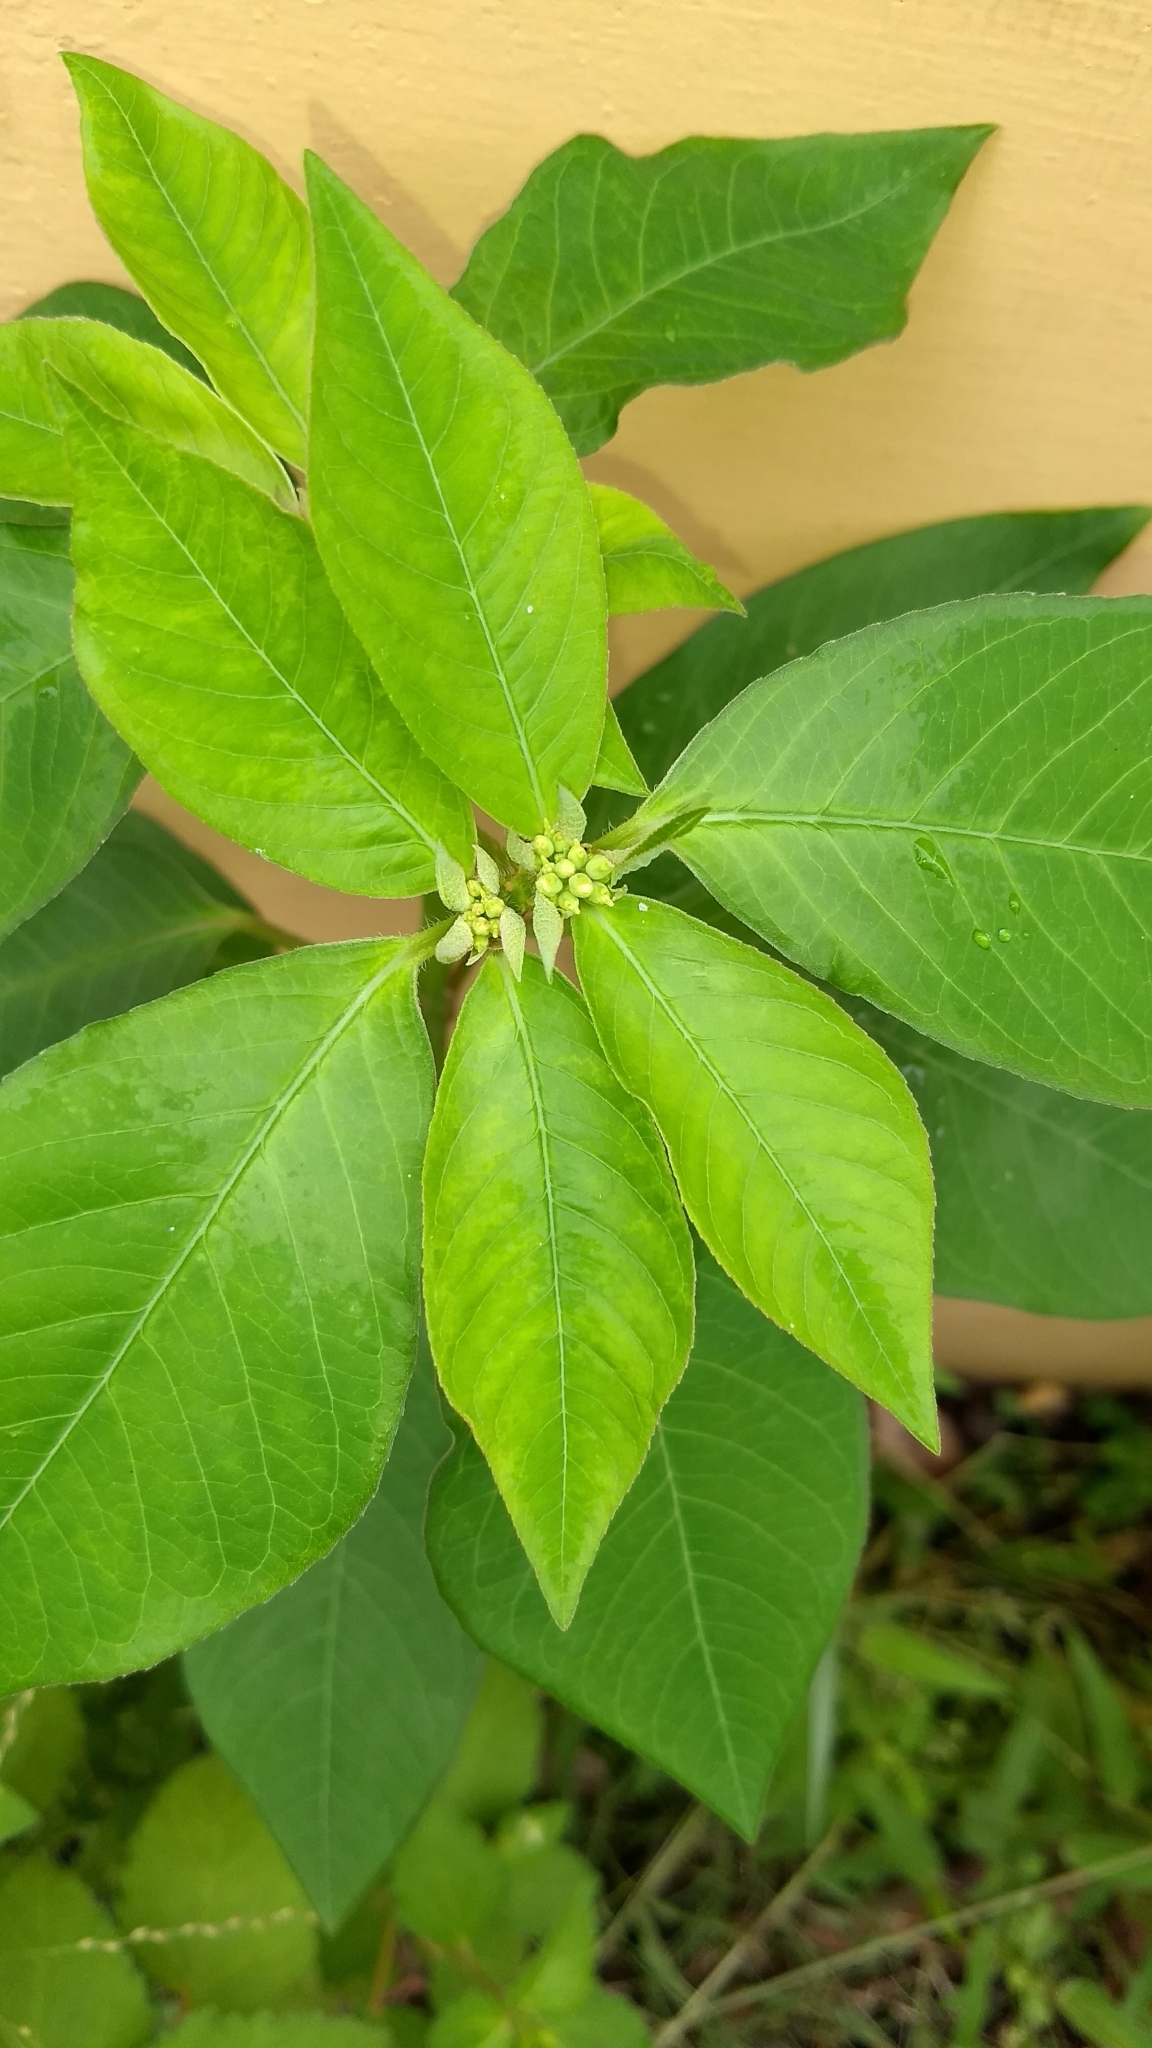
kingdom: Plantae
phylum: Tracheophyta
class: Magnoliopsida
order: Malpighiales
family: Euphorbiaceae
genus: Euphorbia
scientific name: Euphorbia heterophylla
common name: Mexican fireplant
